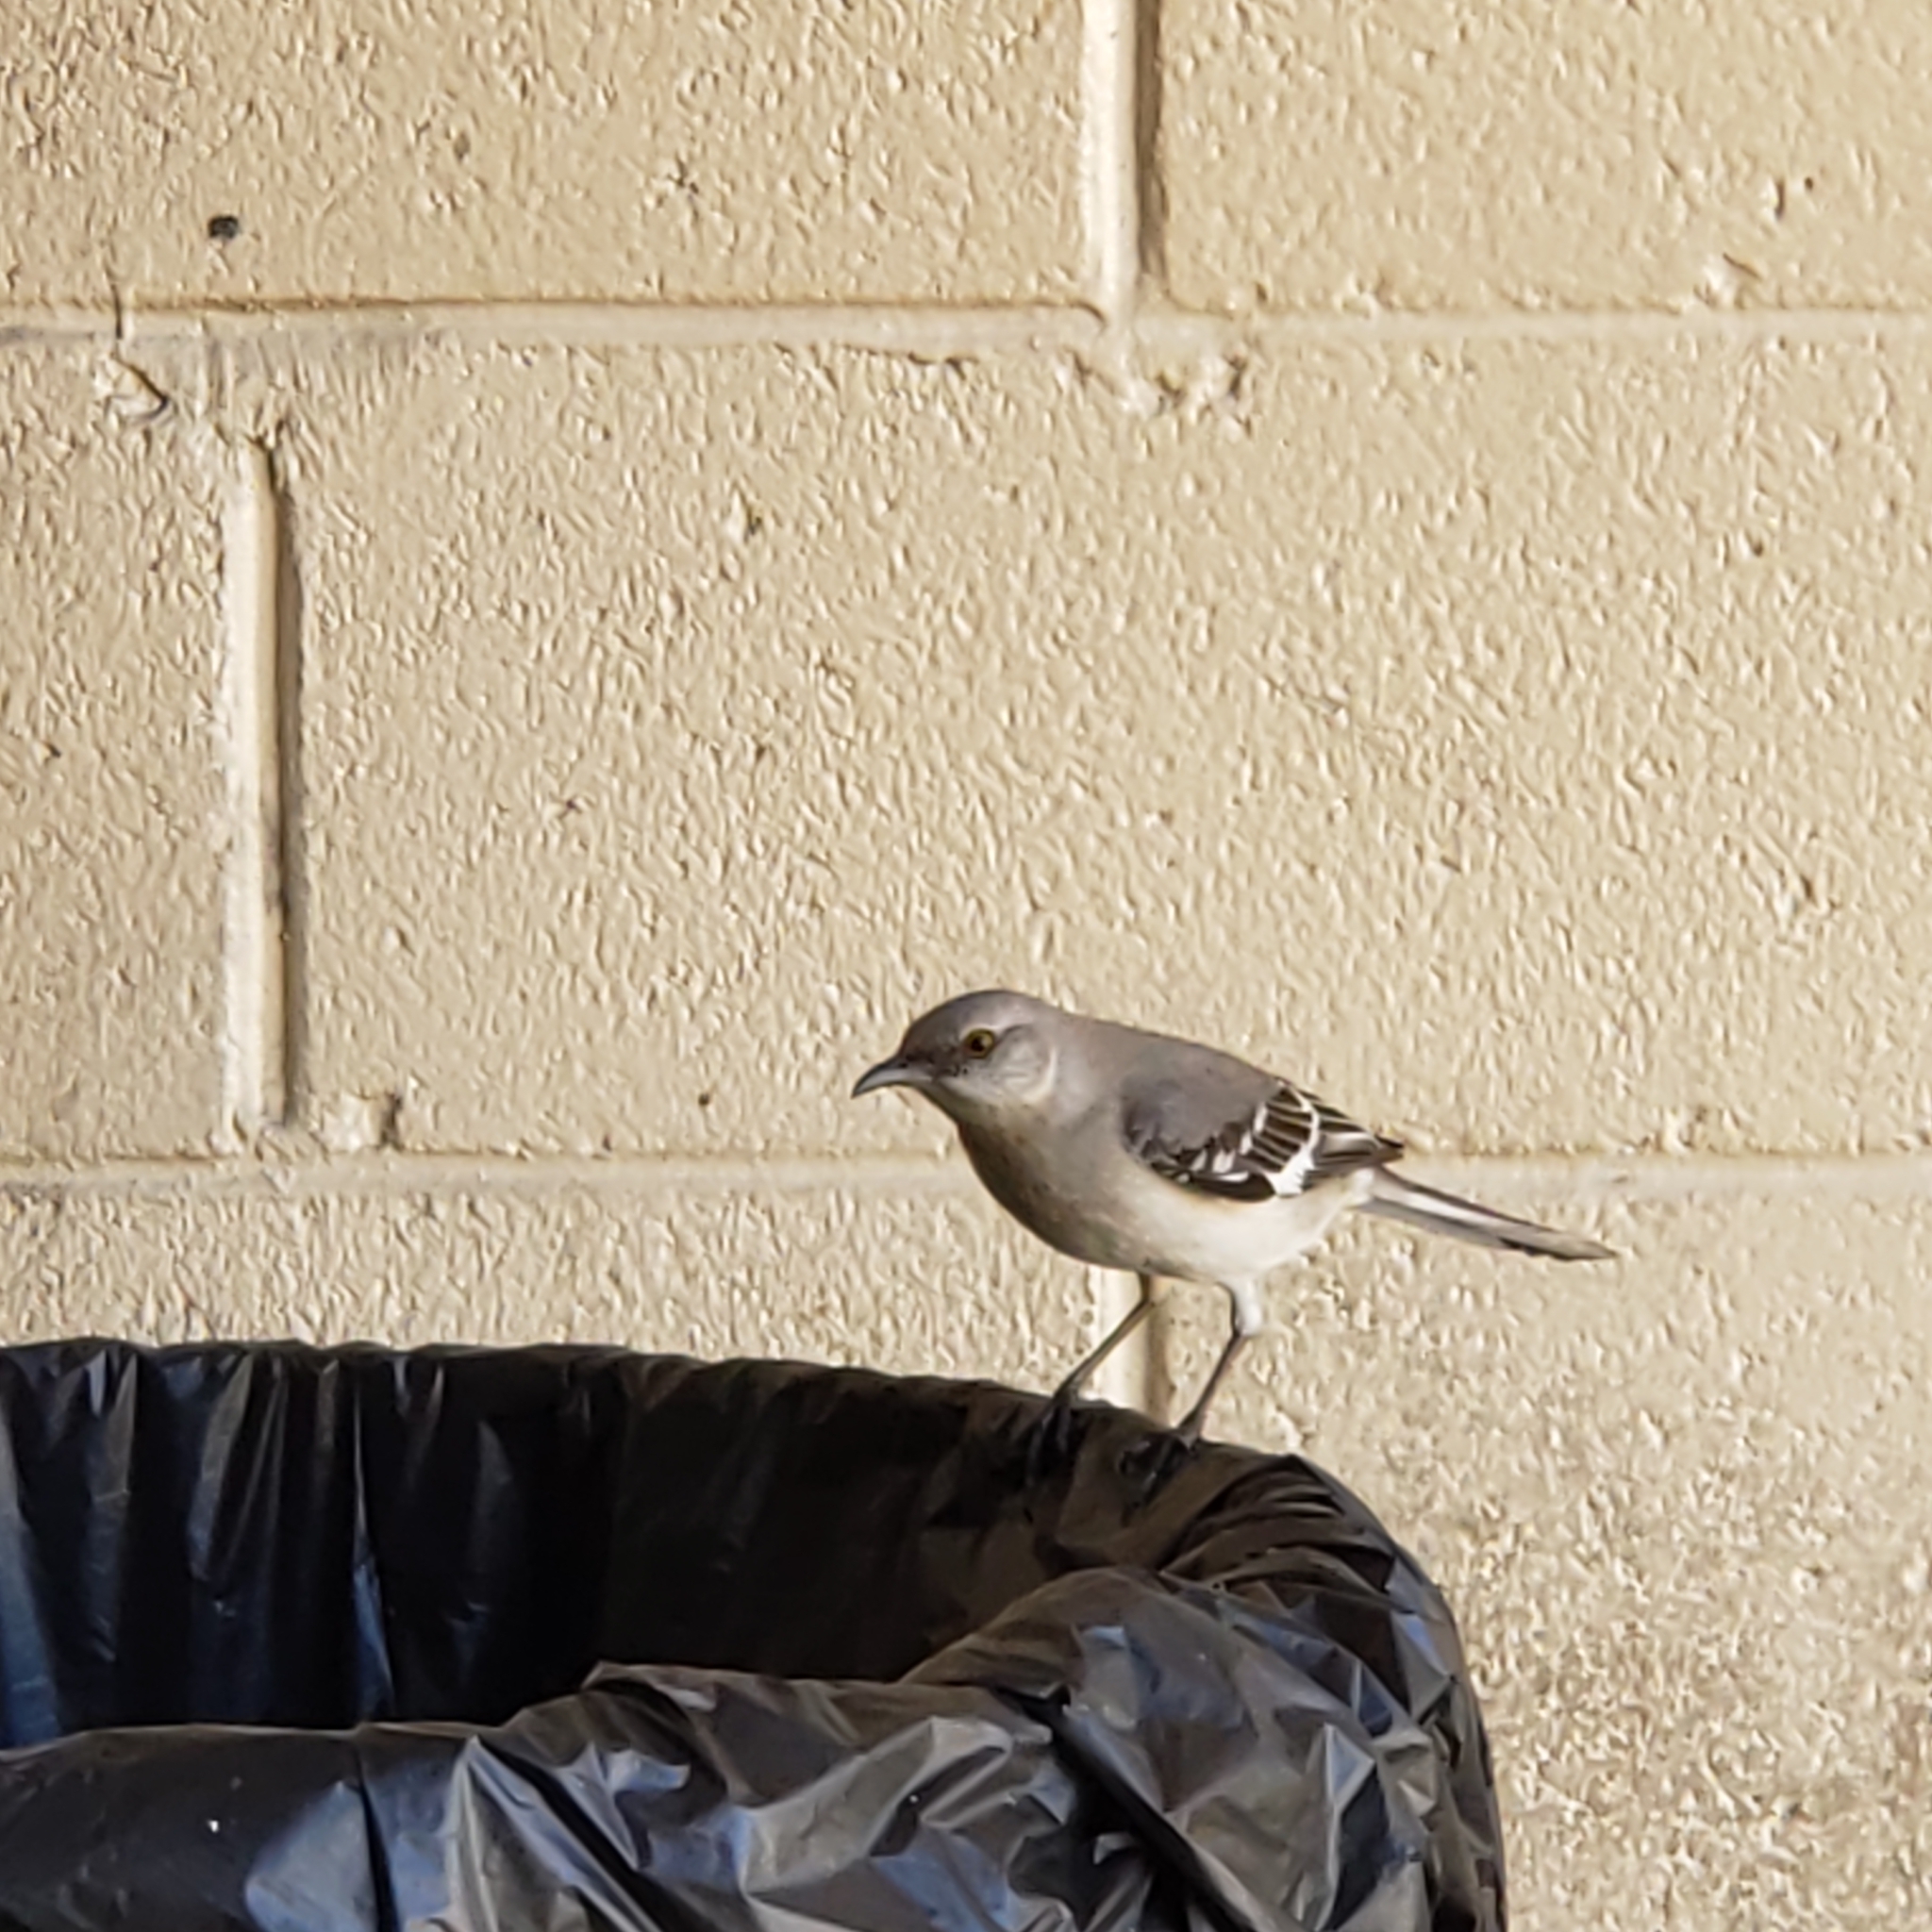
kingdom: Animalia
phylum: Chordata
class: Aves
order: Passeriformes
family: Mimidae
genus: Mimus
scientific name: Mimus polyglottos
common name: Northern mockingbird
